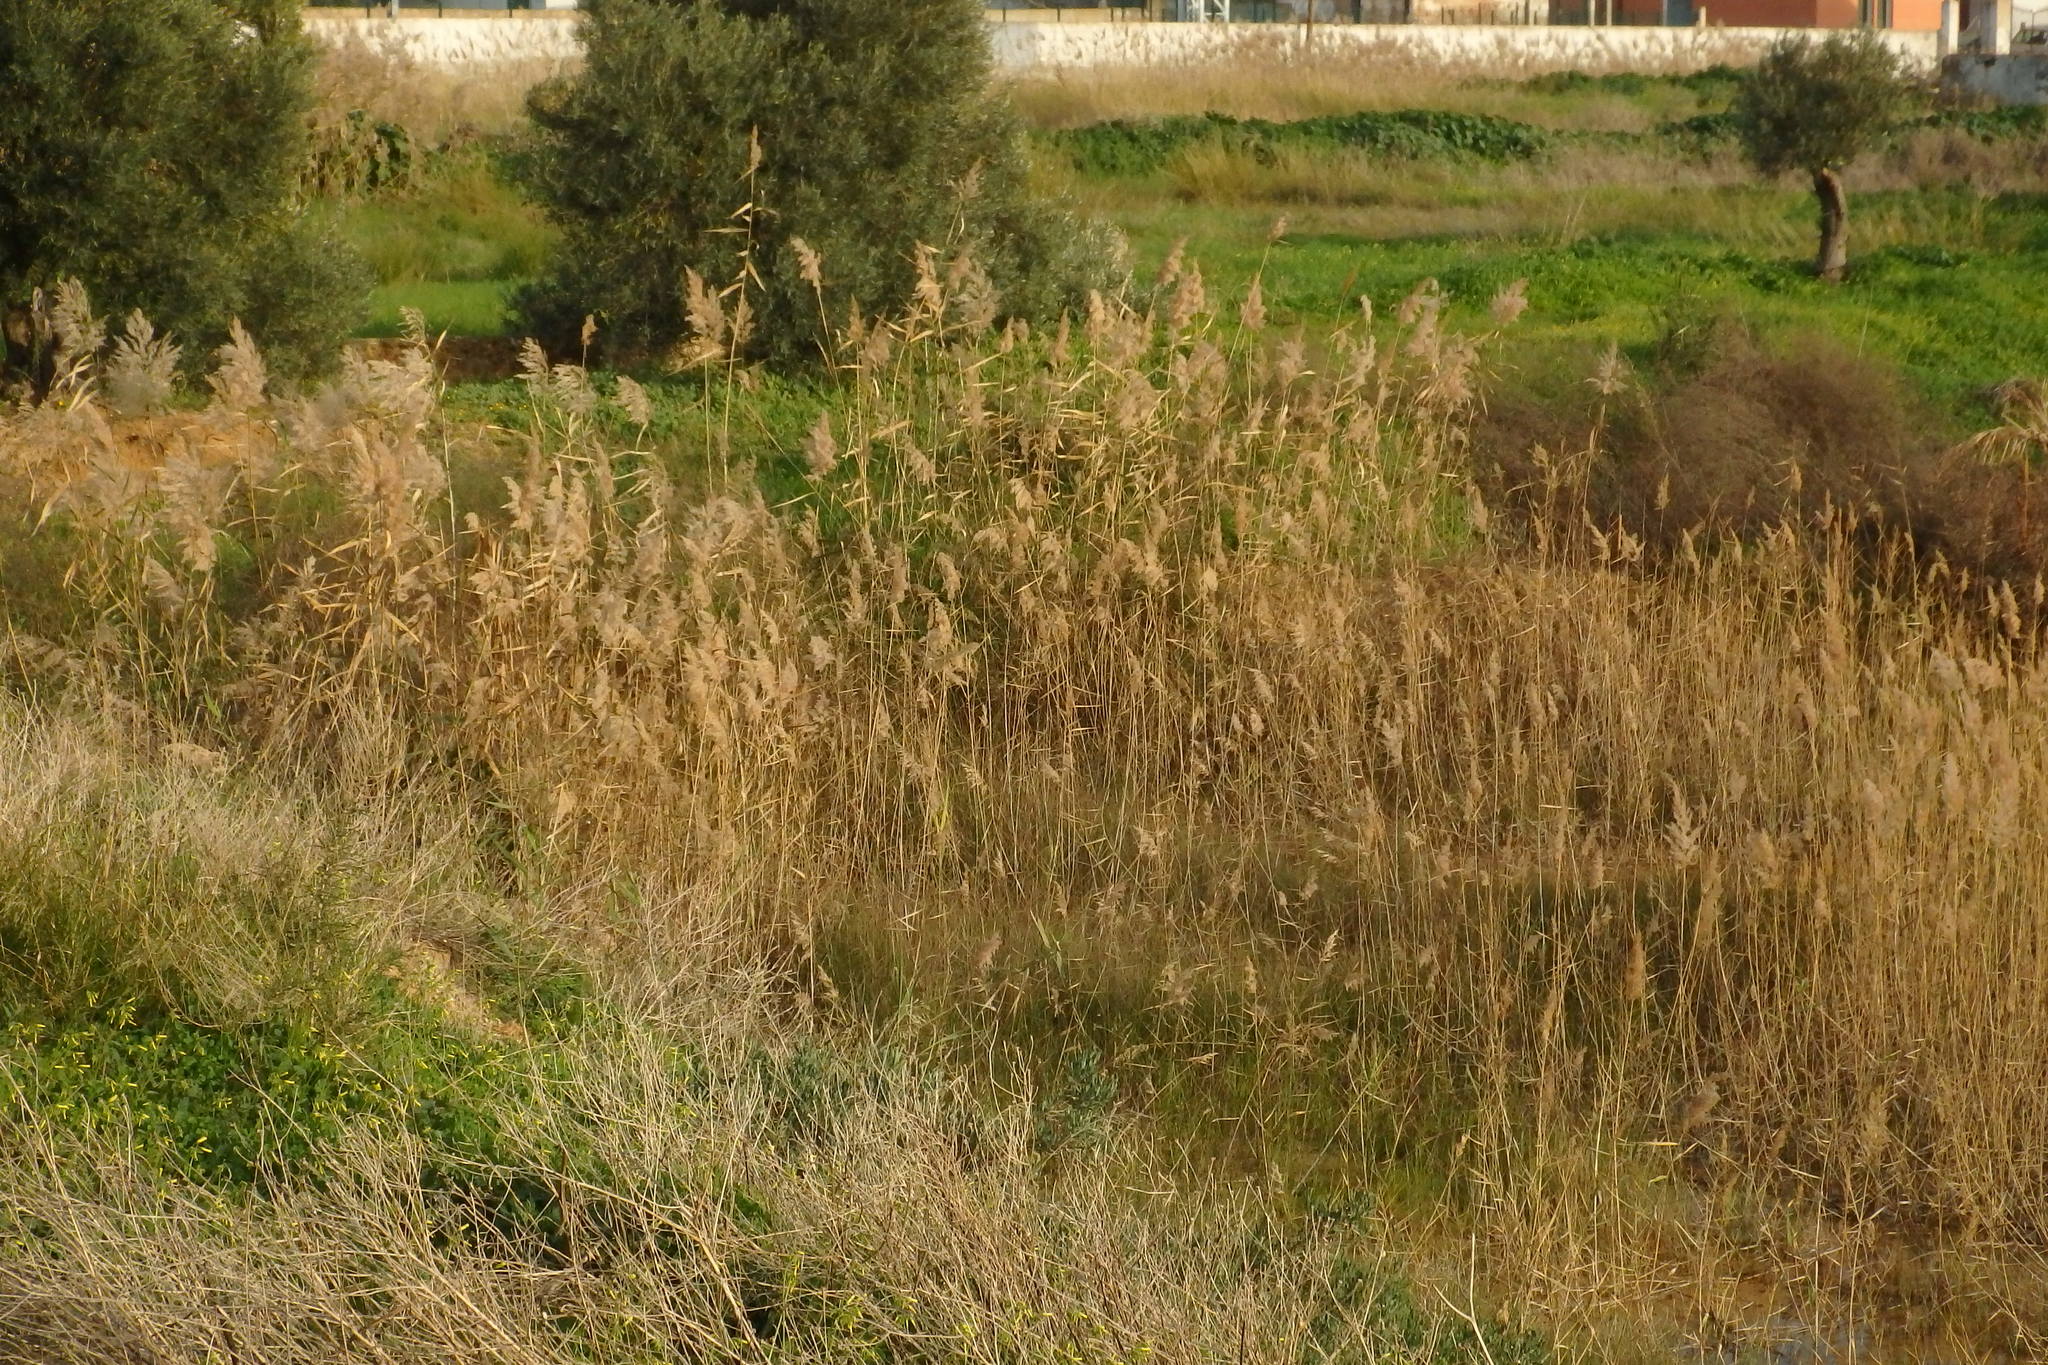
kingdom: Plantae
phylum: Tracheophyta
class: Liliopsida
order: Poales
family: Poaceae
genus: Phragmites
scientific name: Phragmites australis
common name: Common reed
